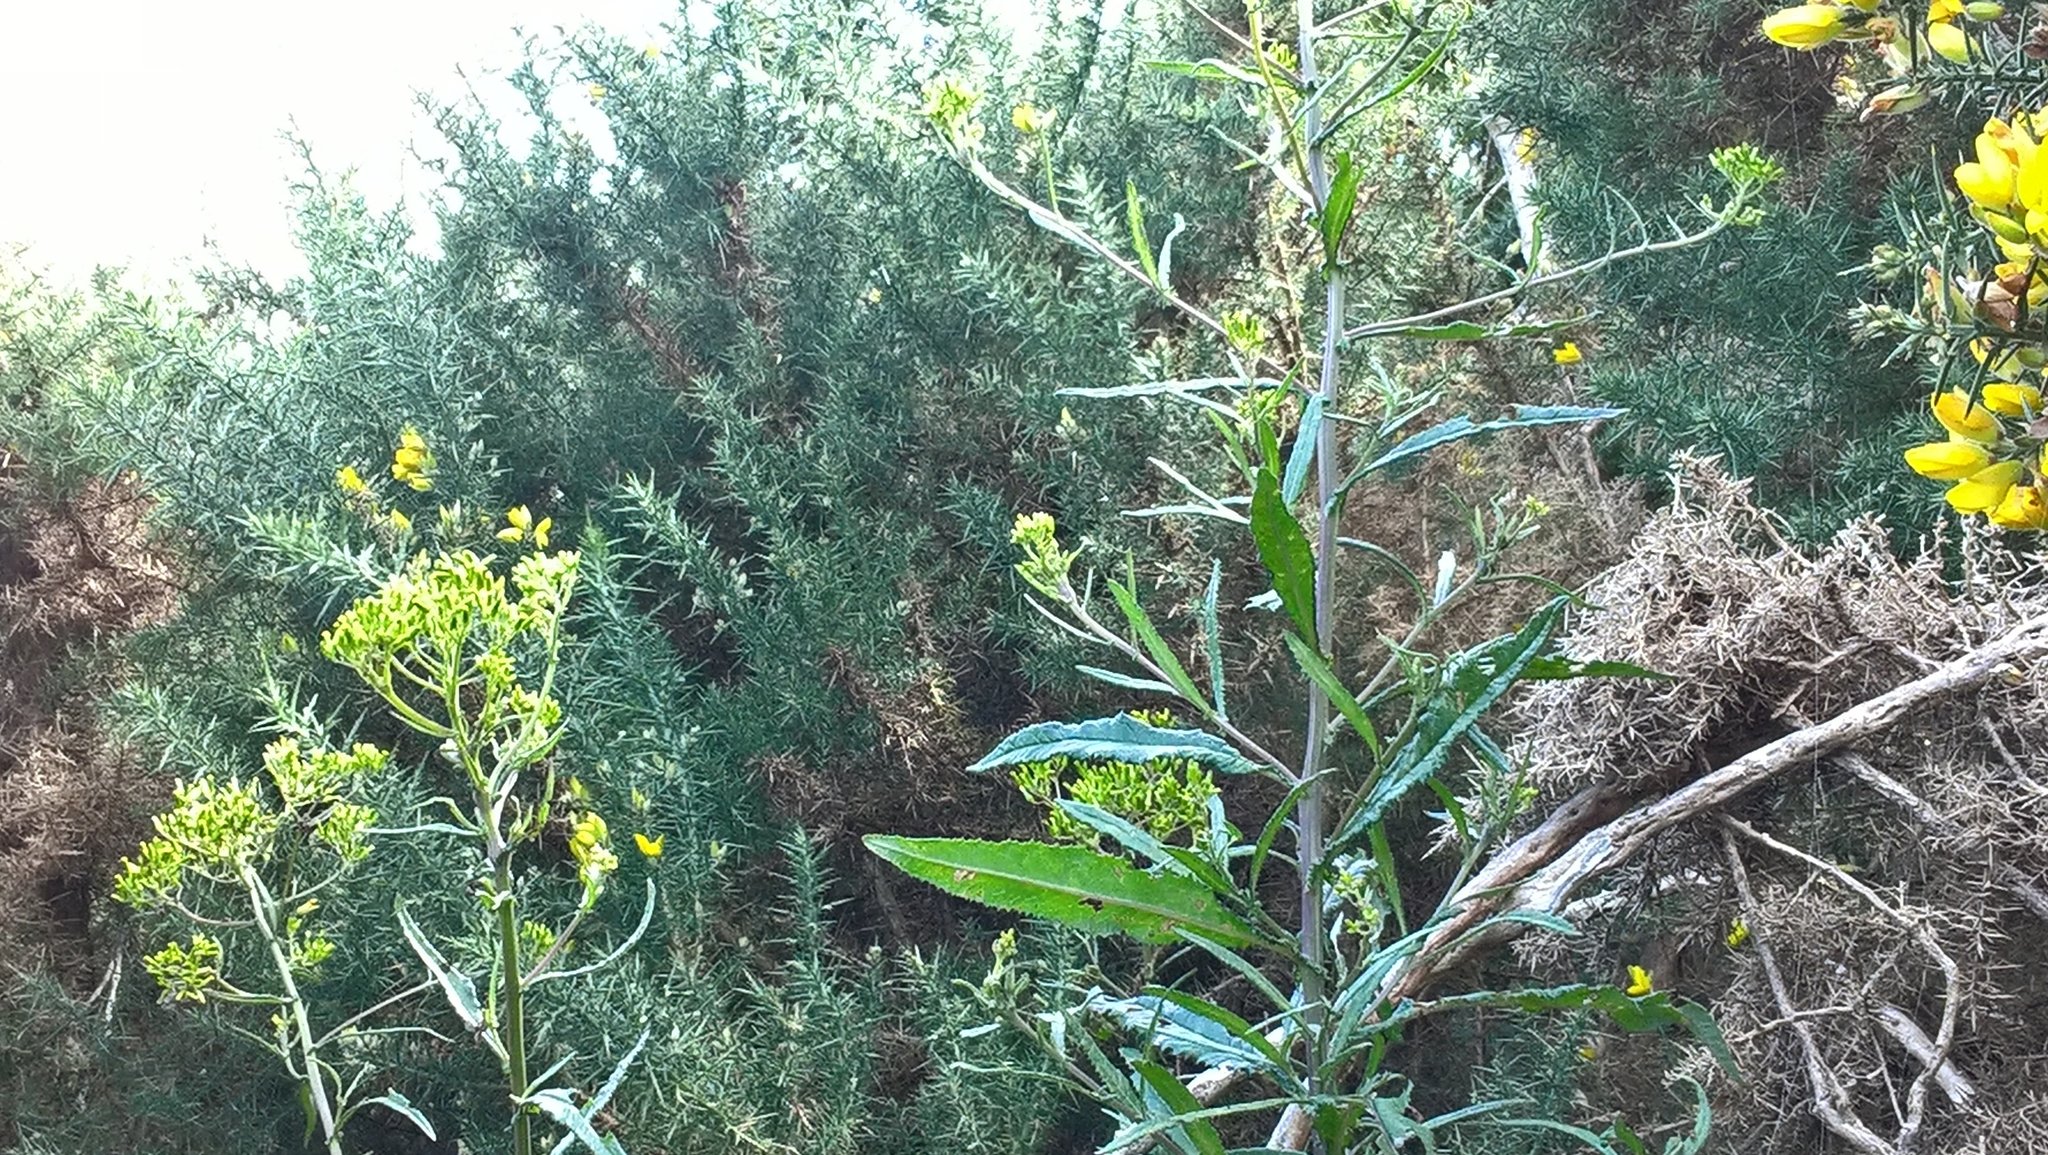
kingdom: Plantae
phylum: Tracheophyta
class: Magnoliopsida
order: Asterales
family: Asteraceae
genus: Senecio
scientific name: Senecio minimus
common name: Toothed fireweed
